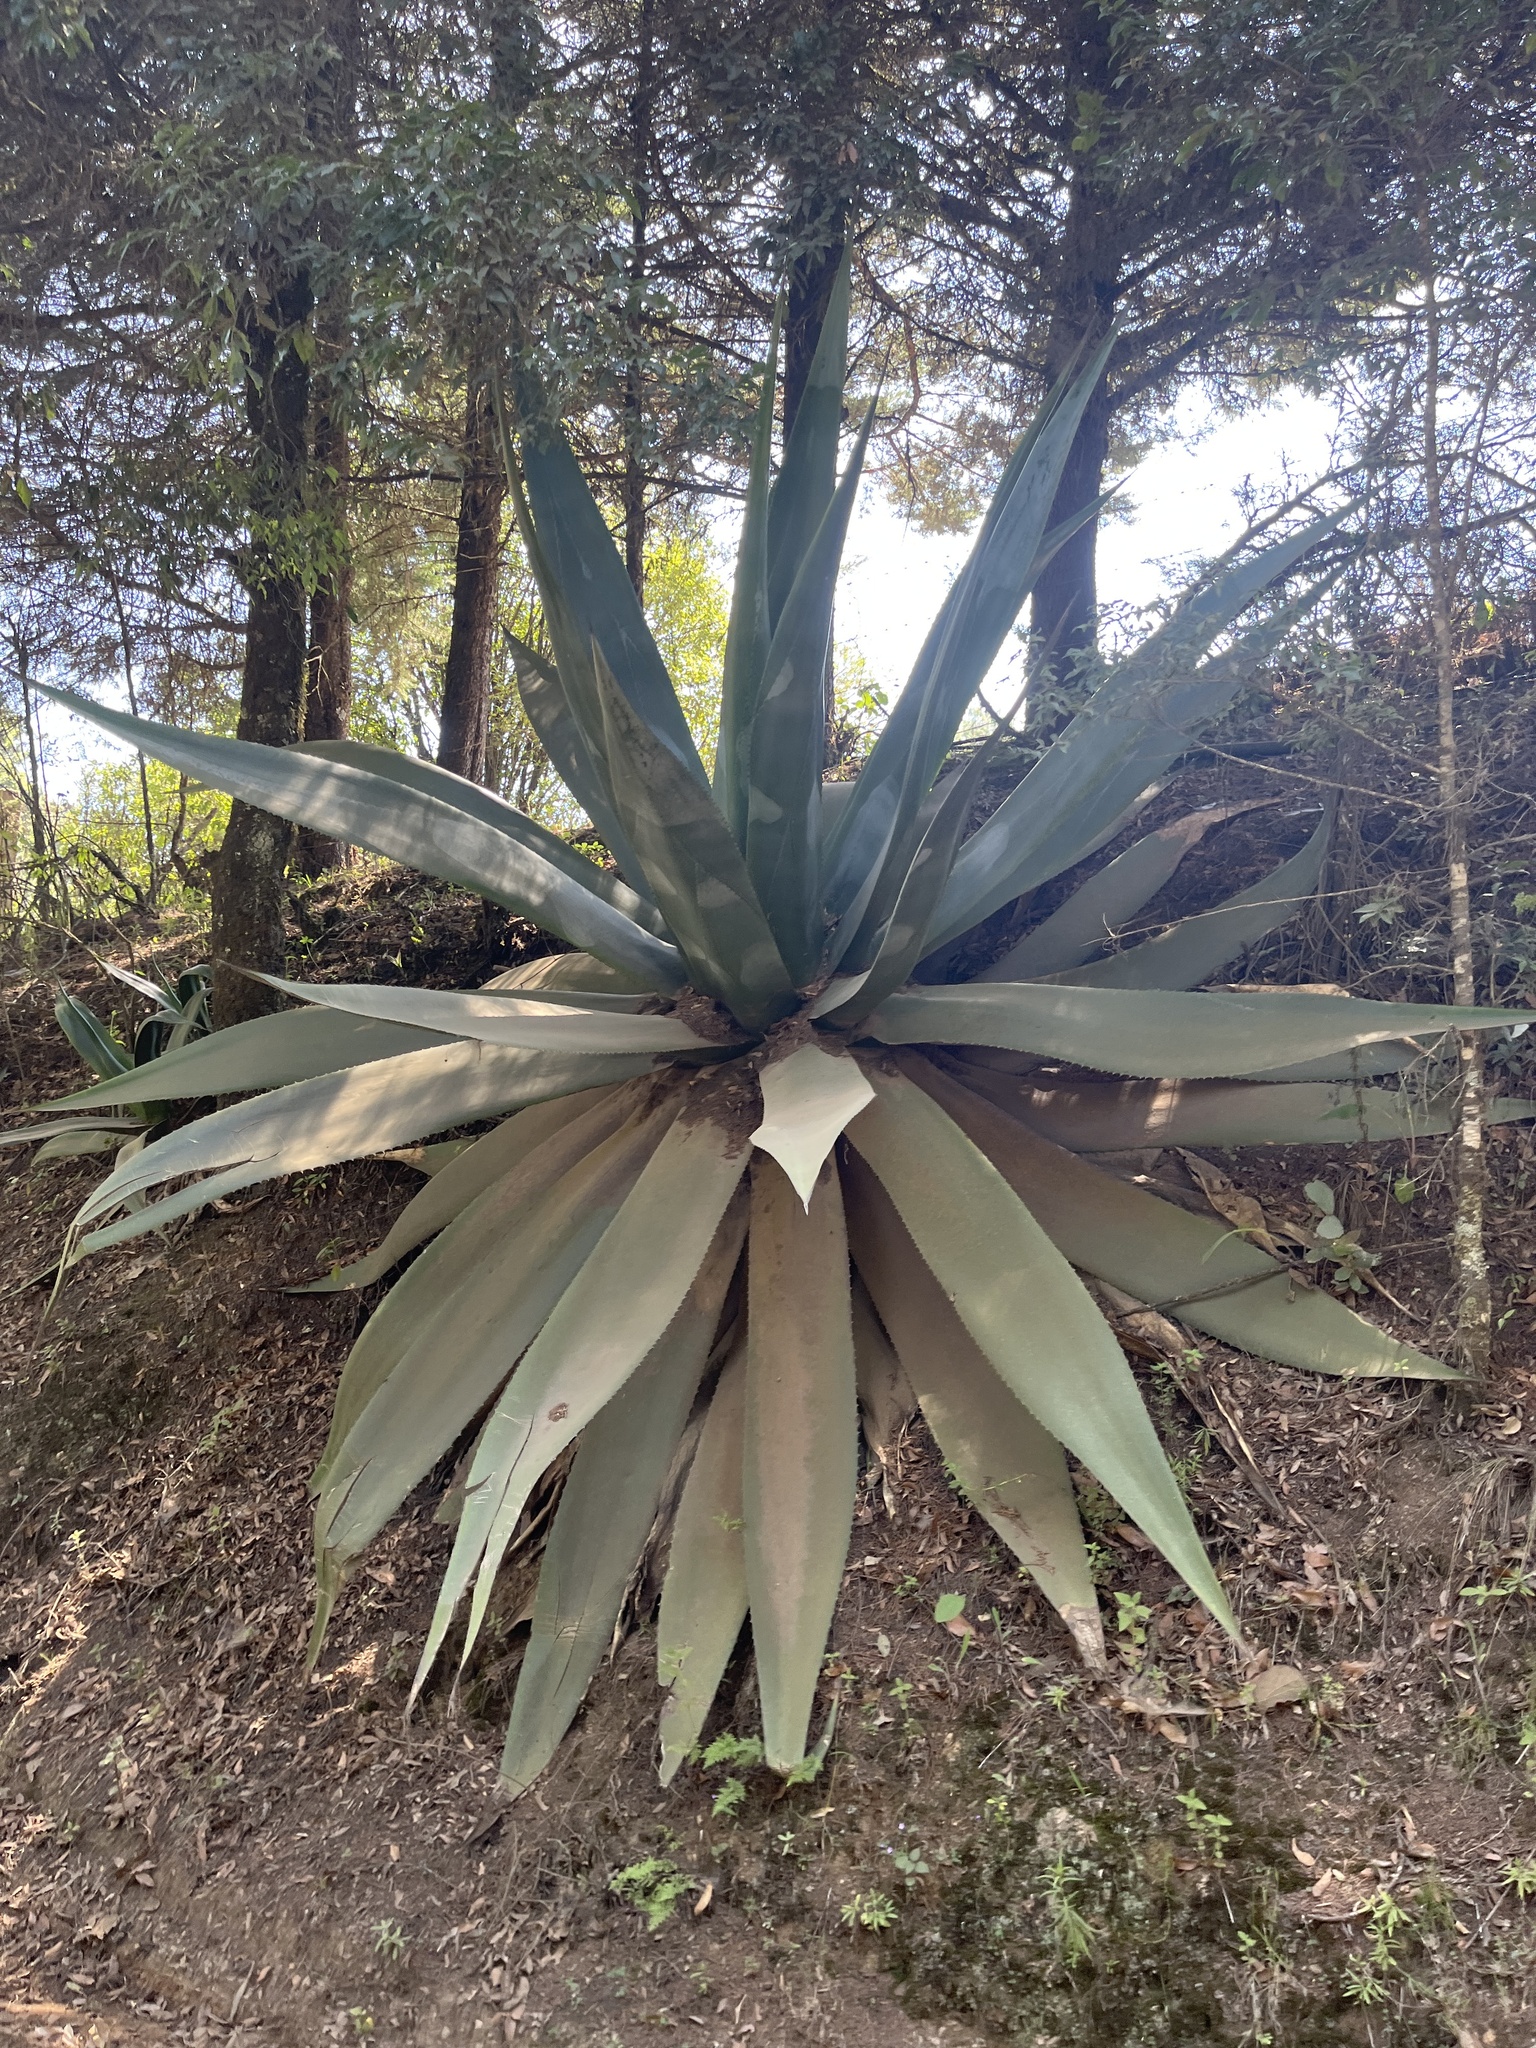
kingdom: Plantae
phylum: Tracheophyta
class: Liliopsida
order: Asparagales
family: Asparagaceae
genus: Agave
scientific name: Agave atrovirens
